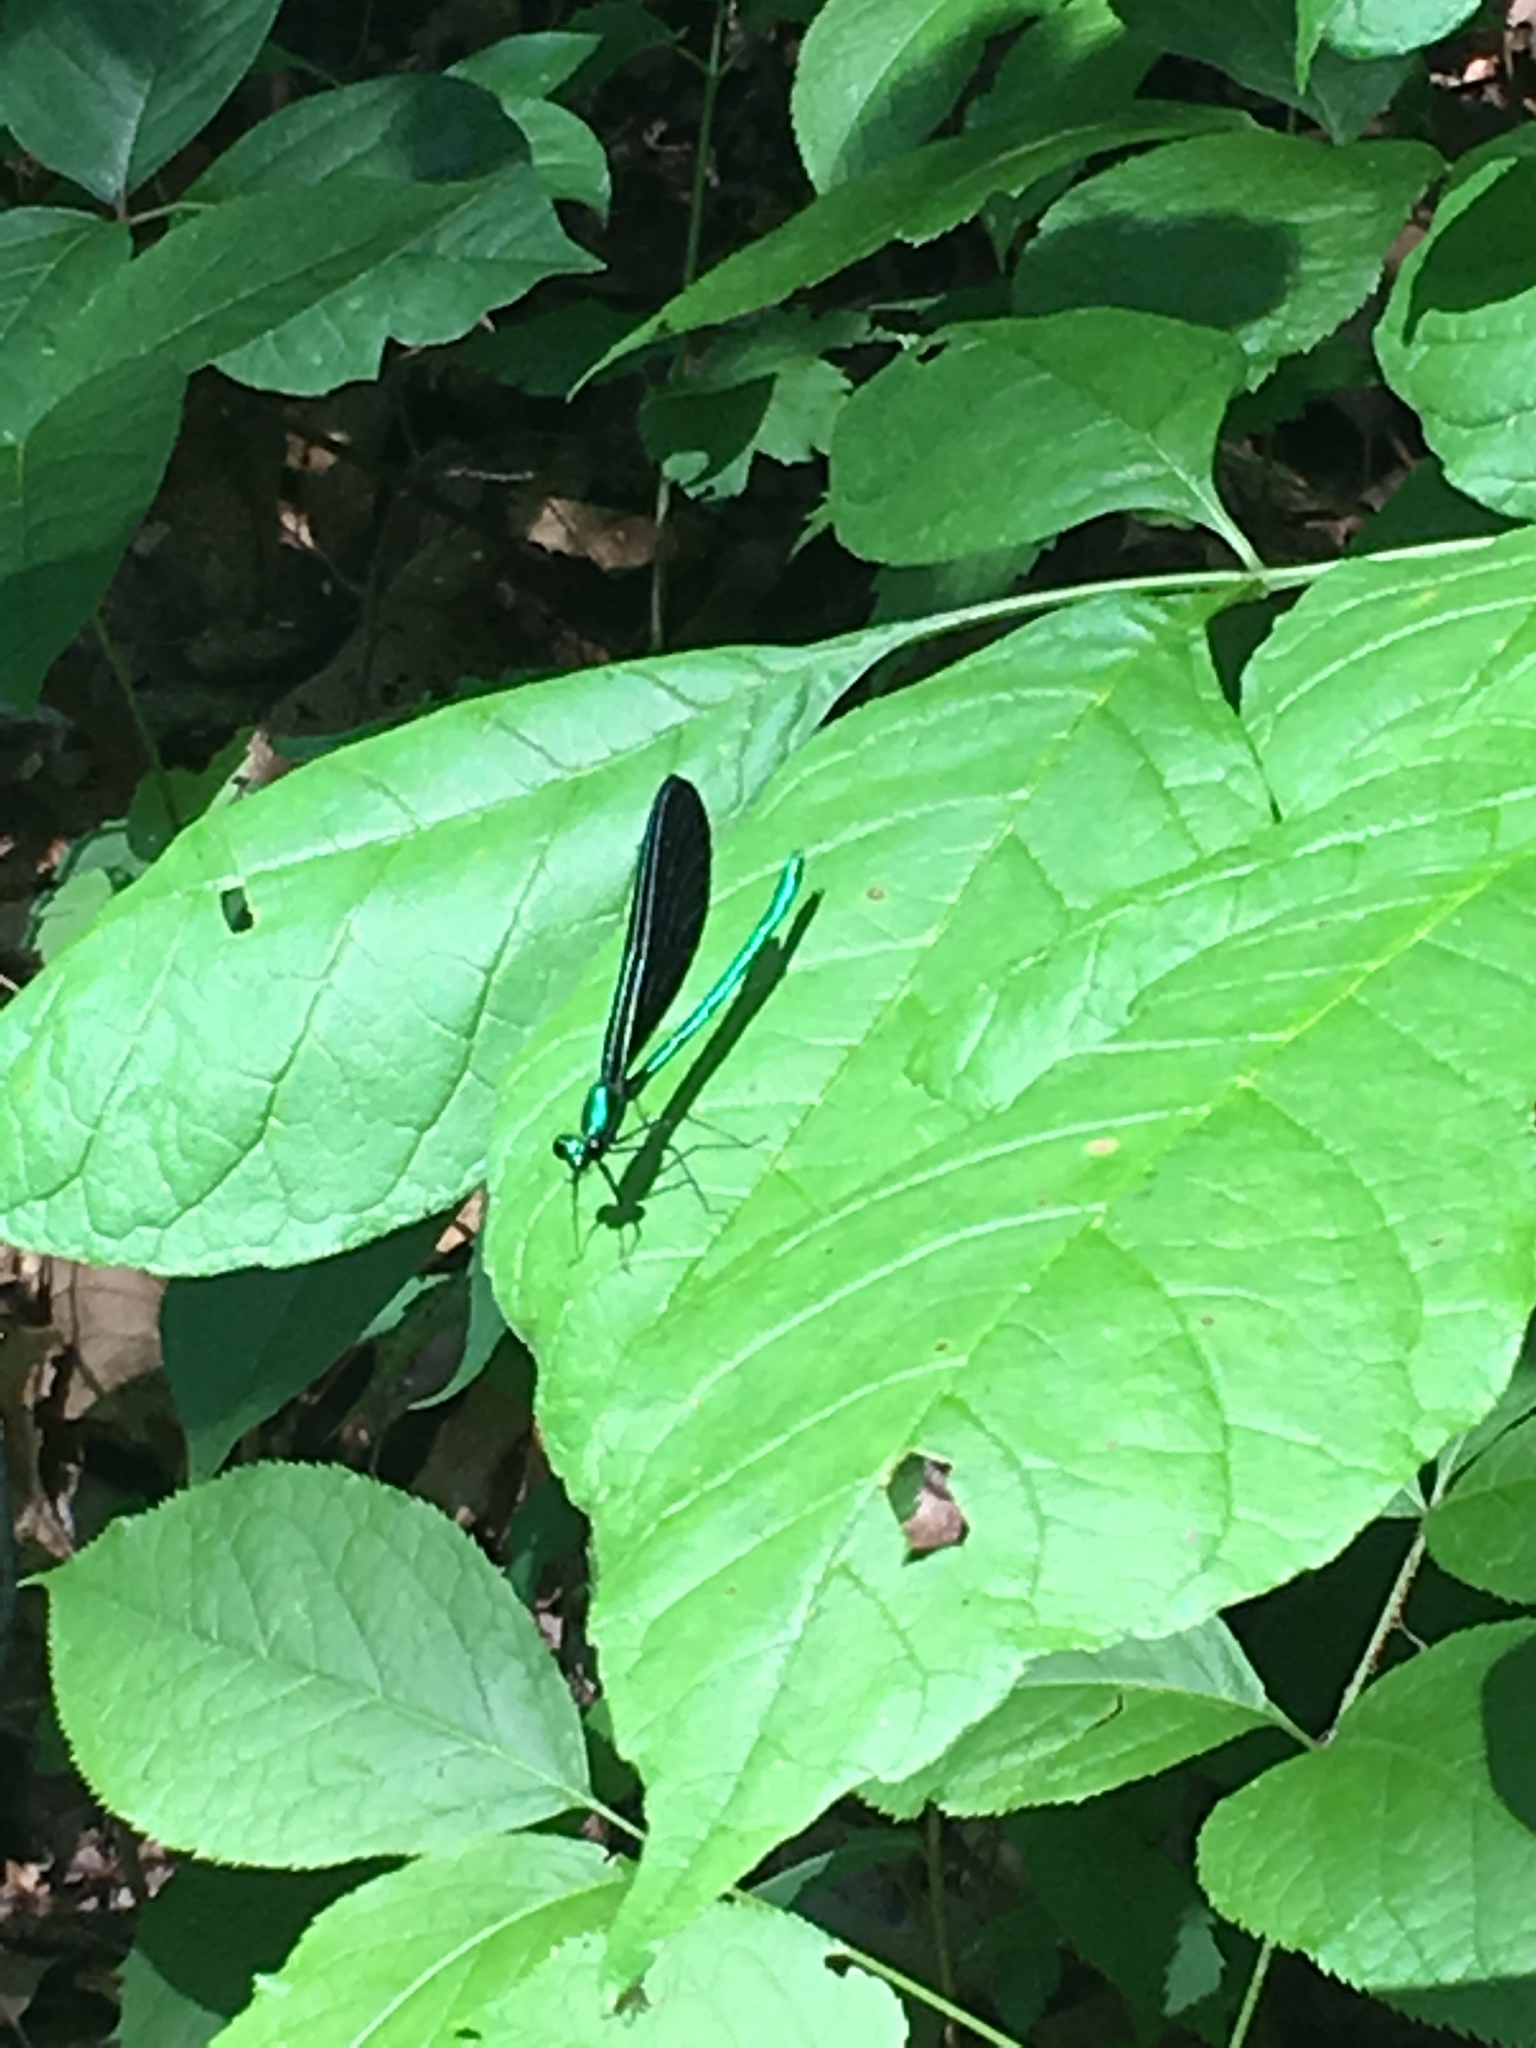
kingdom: Animalia
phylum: Arthropoda
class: Insecta
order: Odonata
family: Calopterygidae
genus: Calopteryx
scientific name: Calopteryx maculata
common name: Ebony jewelwing
